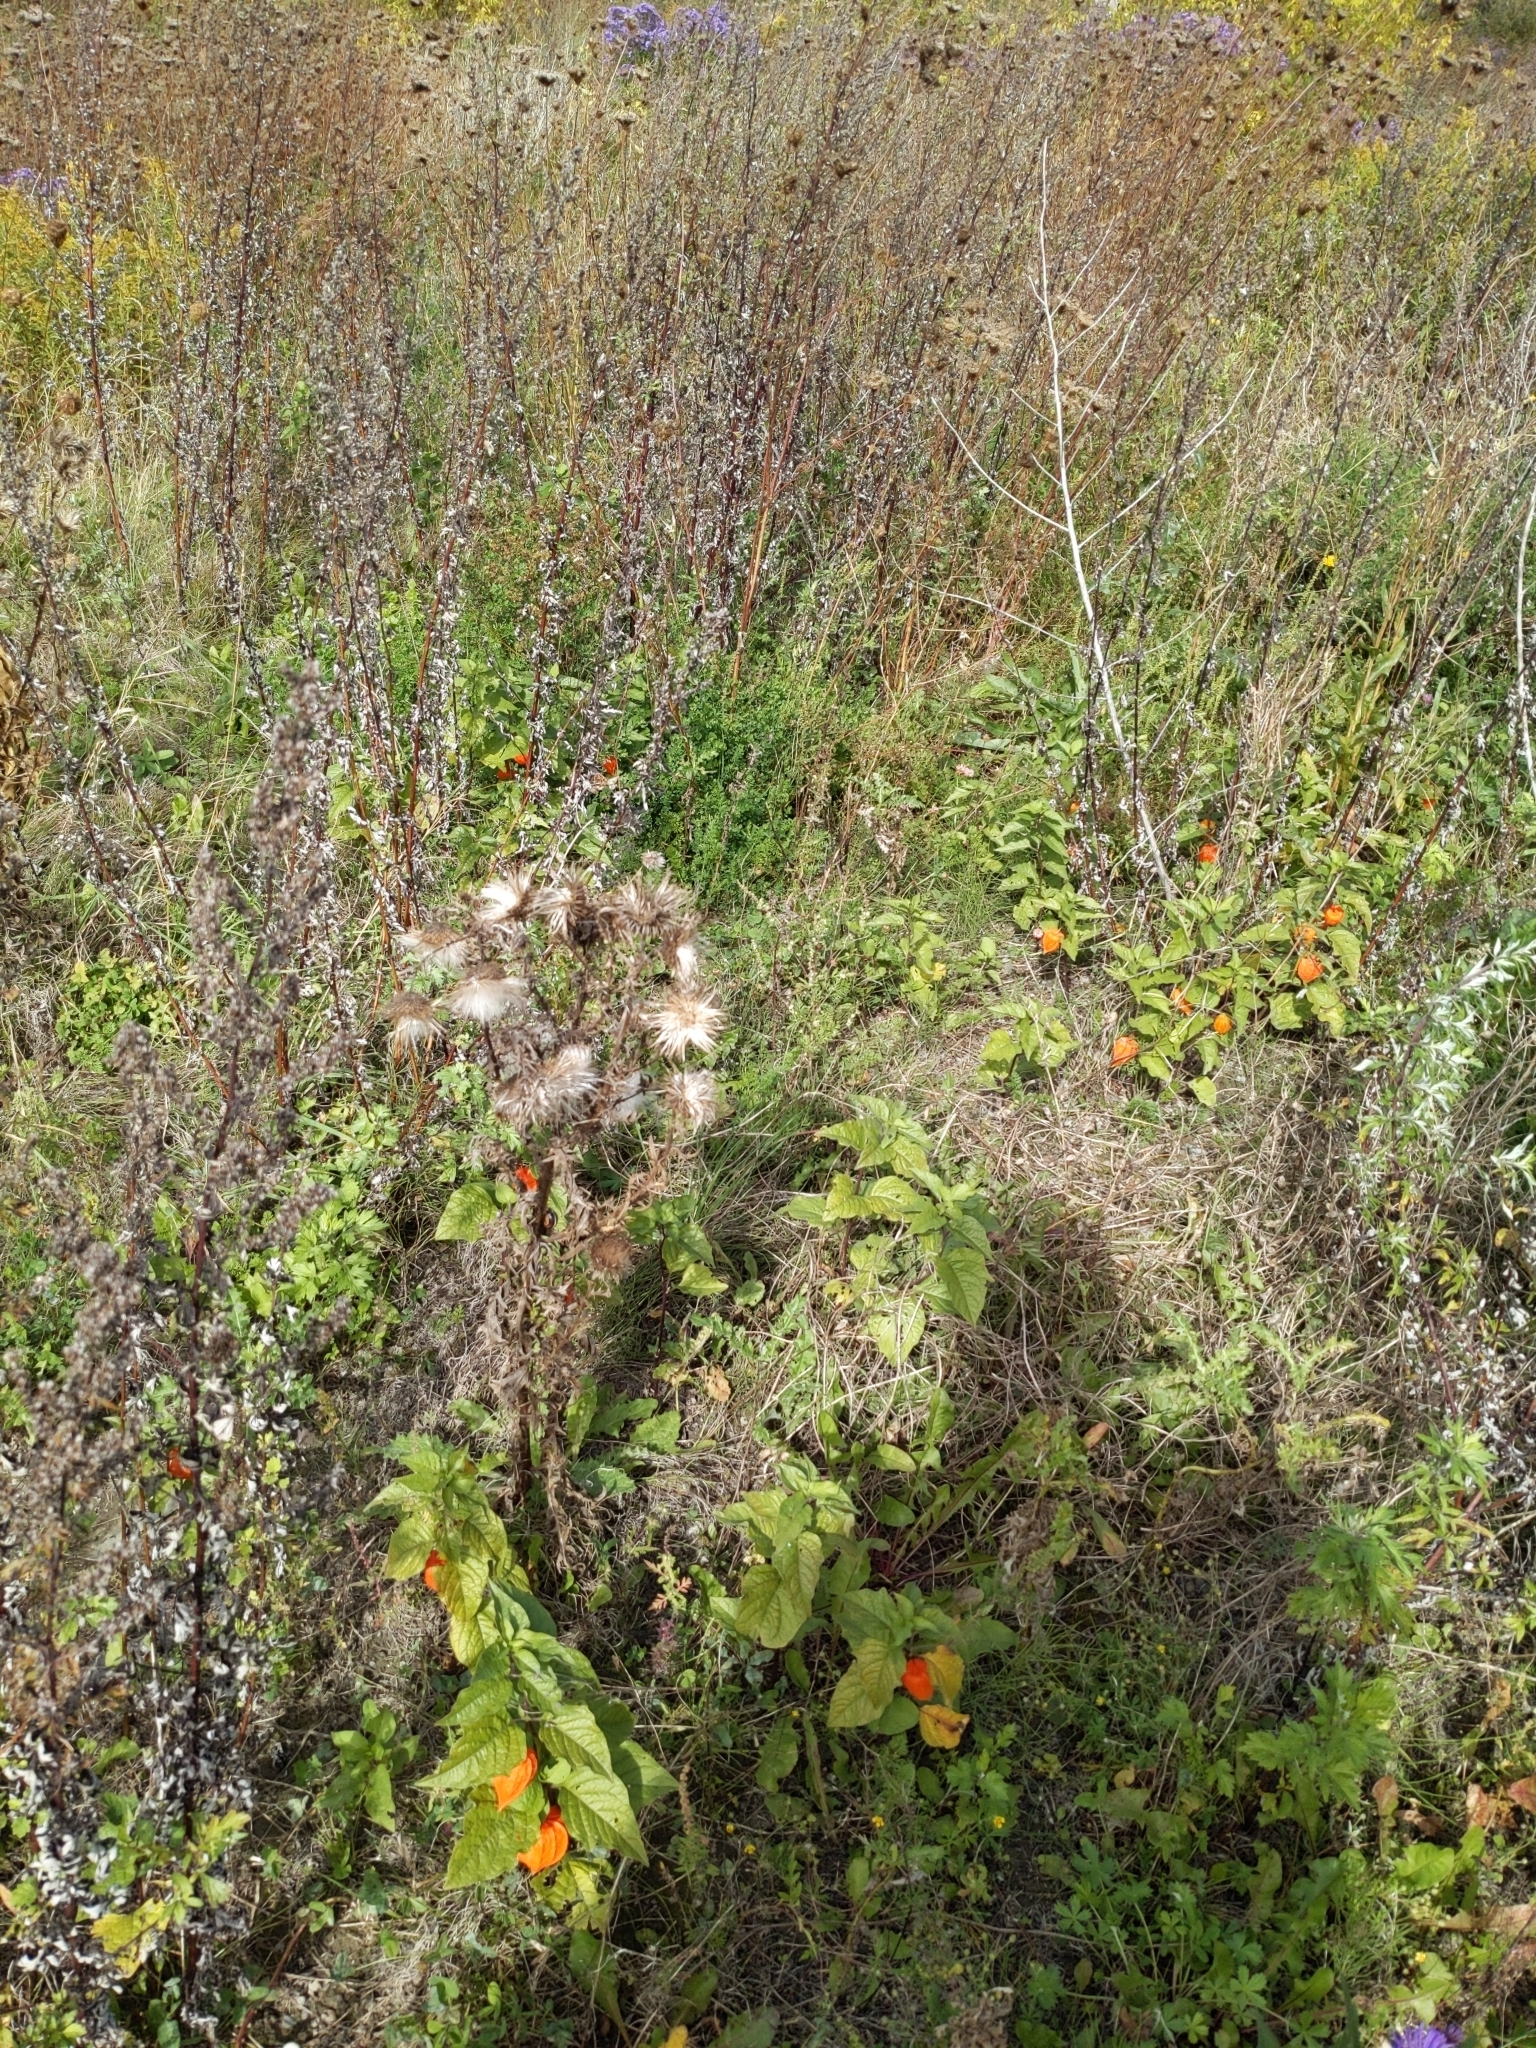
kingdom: Plantae
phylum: Tracheophyta
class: Magnoliopsida
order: Solanales
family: Solanaceae
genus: Alkekengi
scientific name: Alkekengi officinarum
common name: Japanese-lantern
